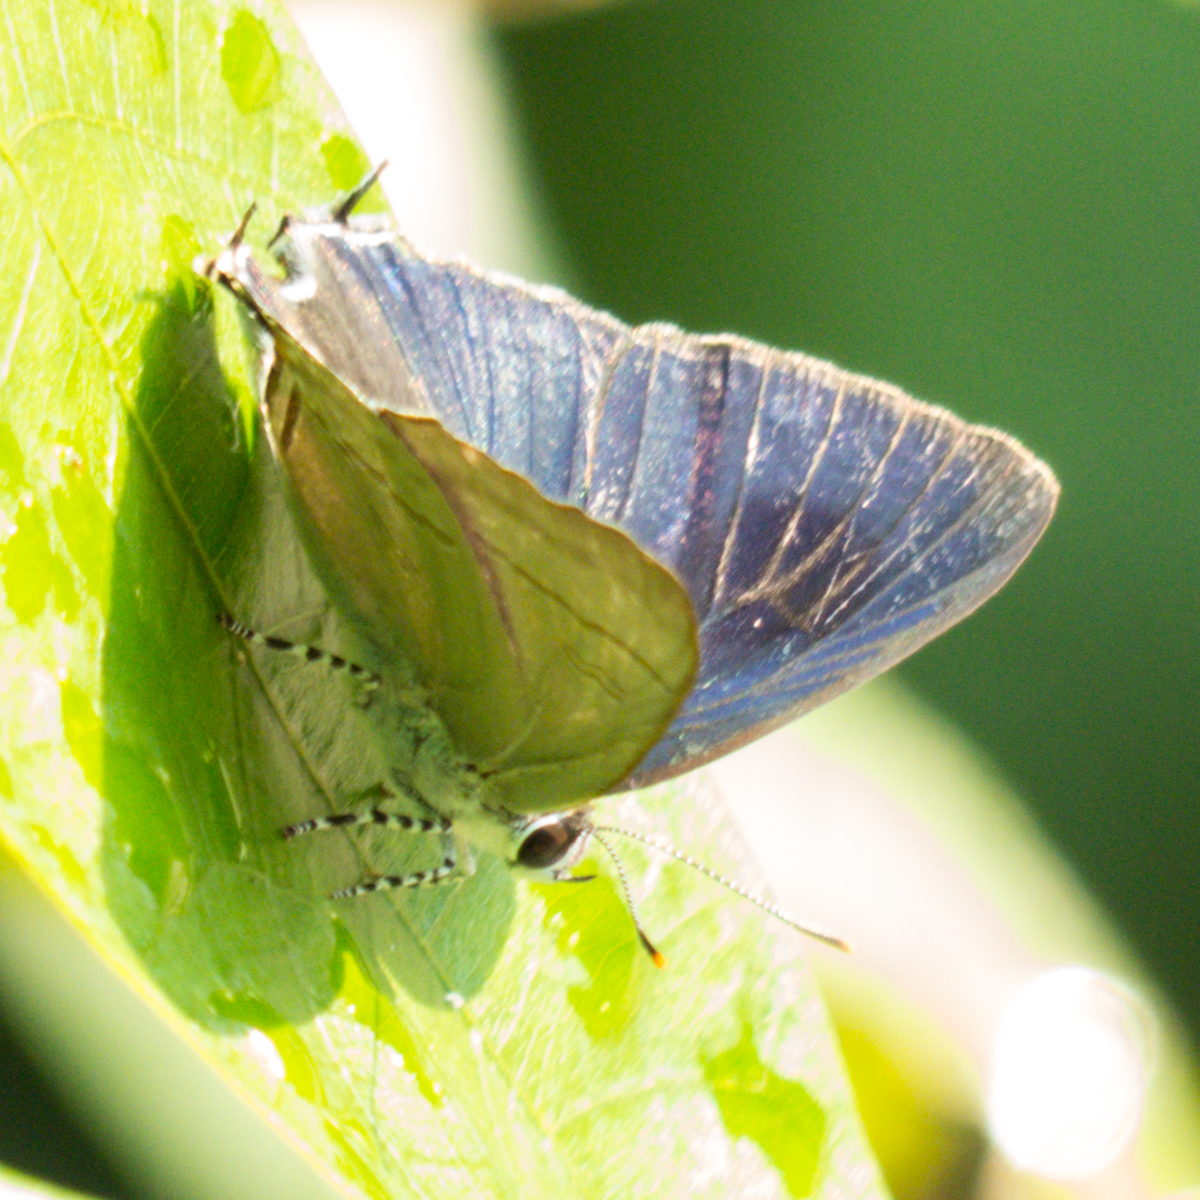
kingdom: Animalia
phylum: Arthropoda
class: Insecta
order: Lepidoptera
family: Lycaenidae
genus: Hypolycaena
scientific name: Hypolycaena erylus
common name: Common tit
